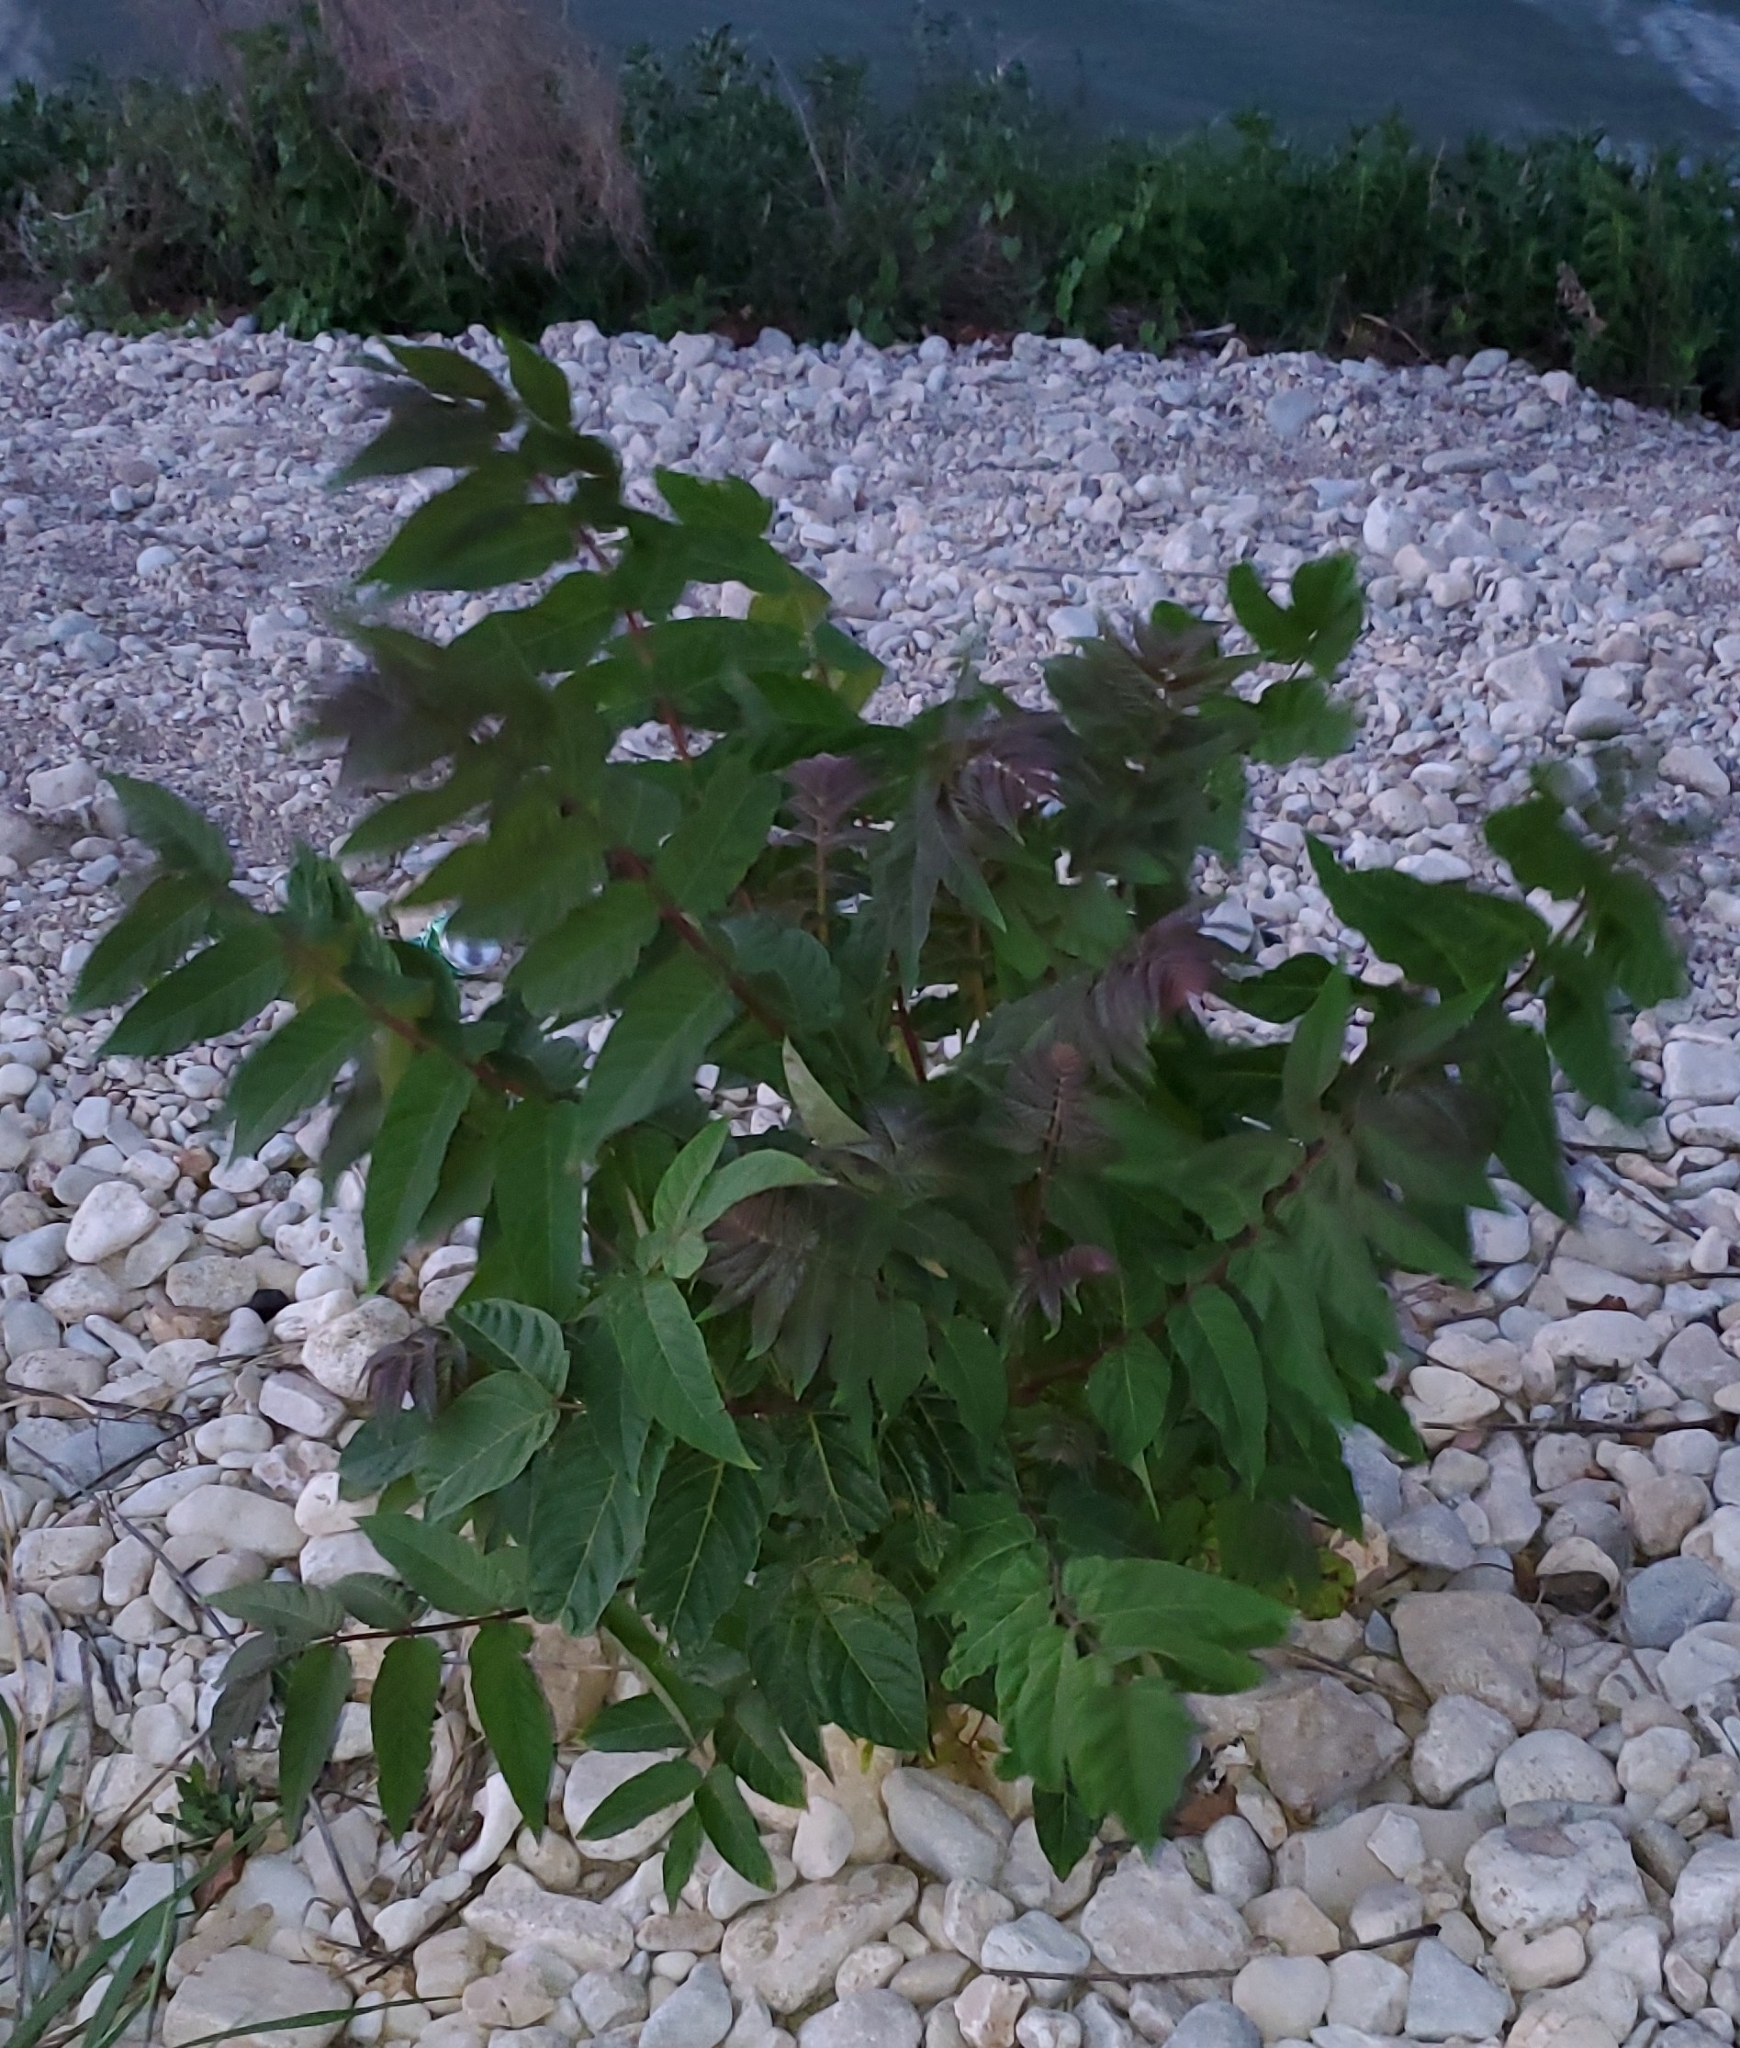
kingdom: Plantae
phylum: Tracheophyta
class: Magnoliopsida
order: Sapindales
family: Simaroubaceae
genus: Ailanthus
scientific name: Ailanthus altissima
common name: Tree-of-heaven
